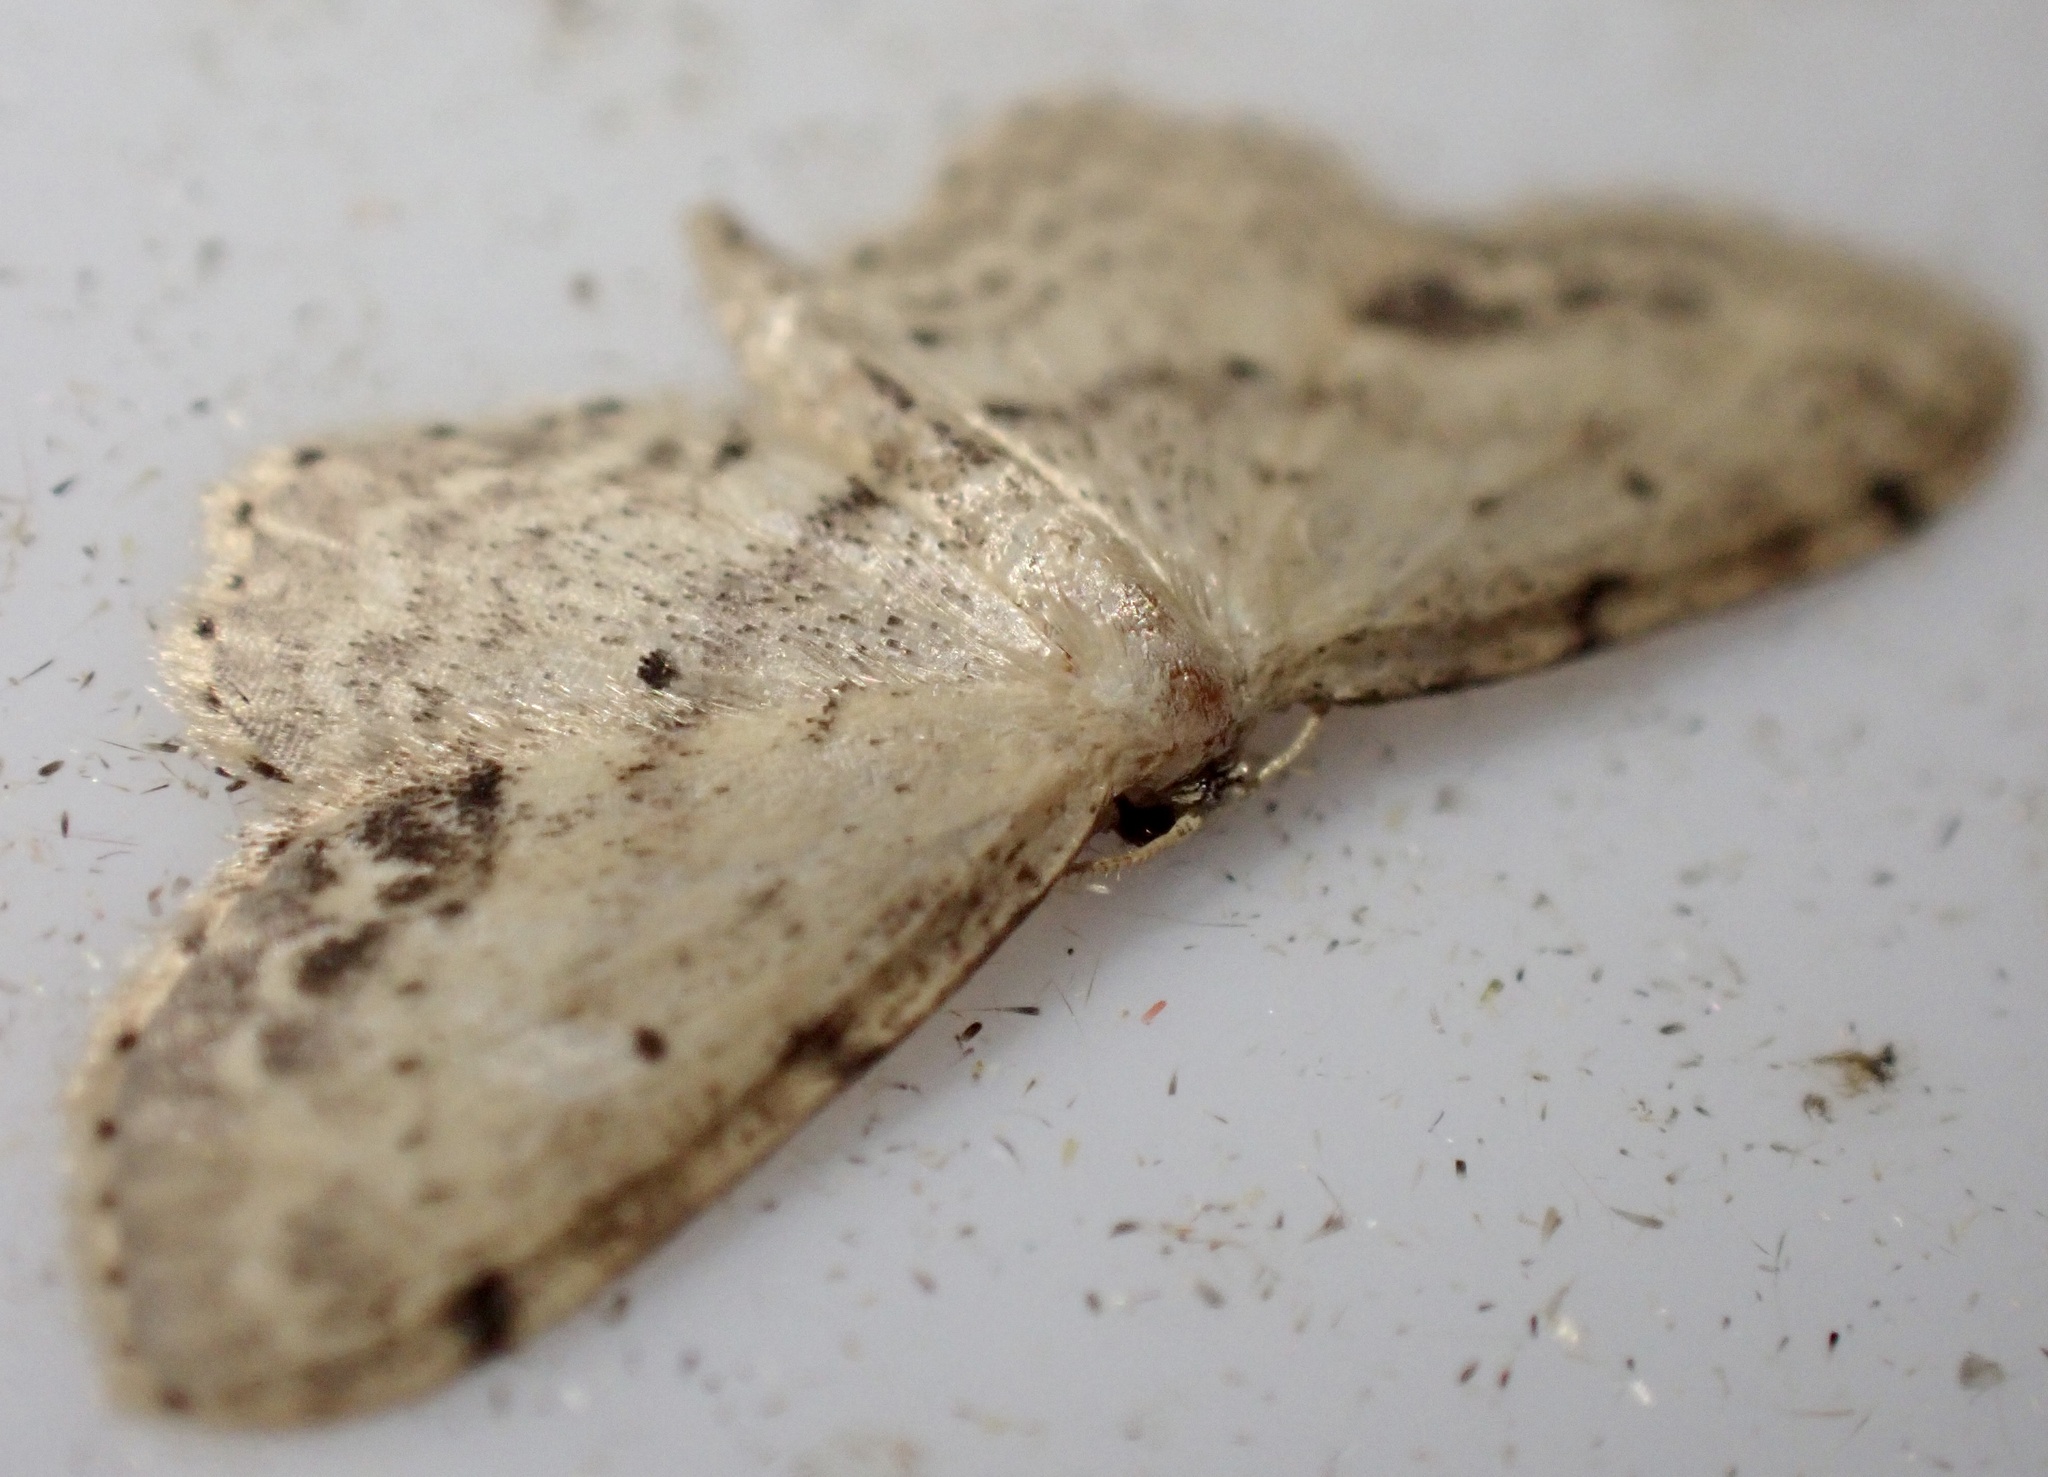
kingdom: Animalia
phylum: Arthropoda
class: Insecta
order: Lepidoptera
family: Geometridae
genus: Idaea
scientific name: Idaea dimidiata
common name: Single-dotted wave
